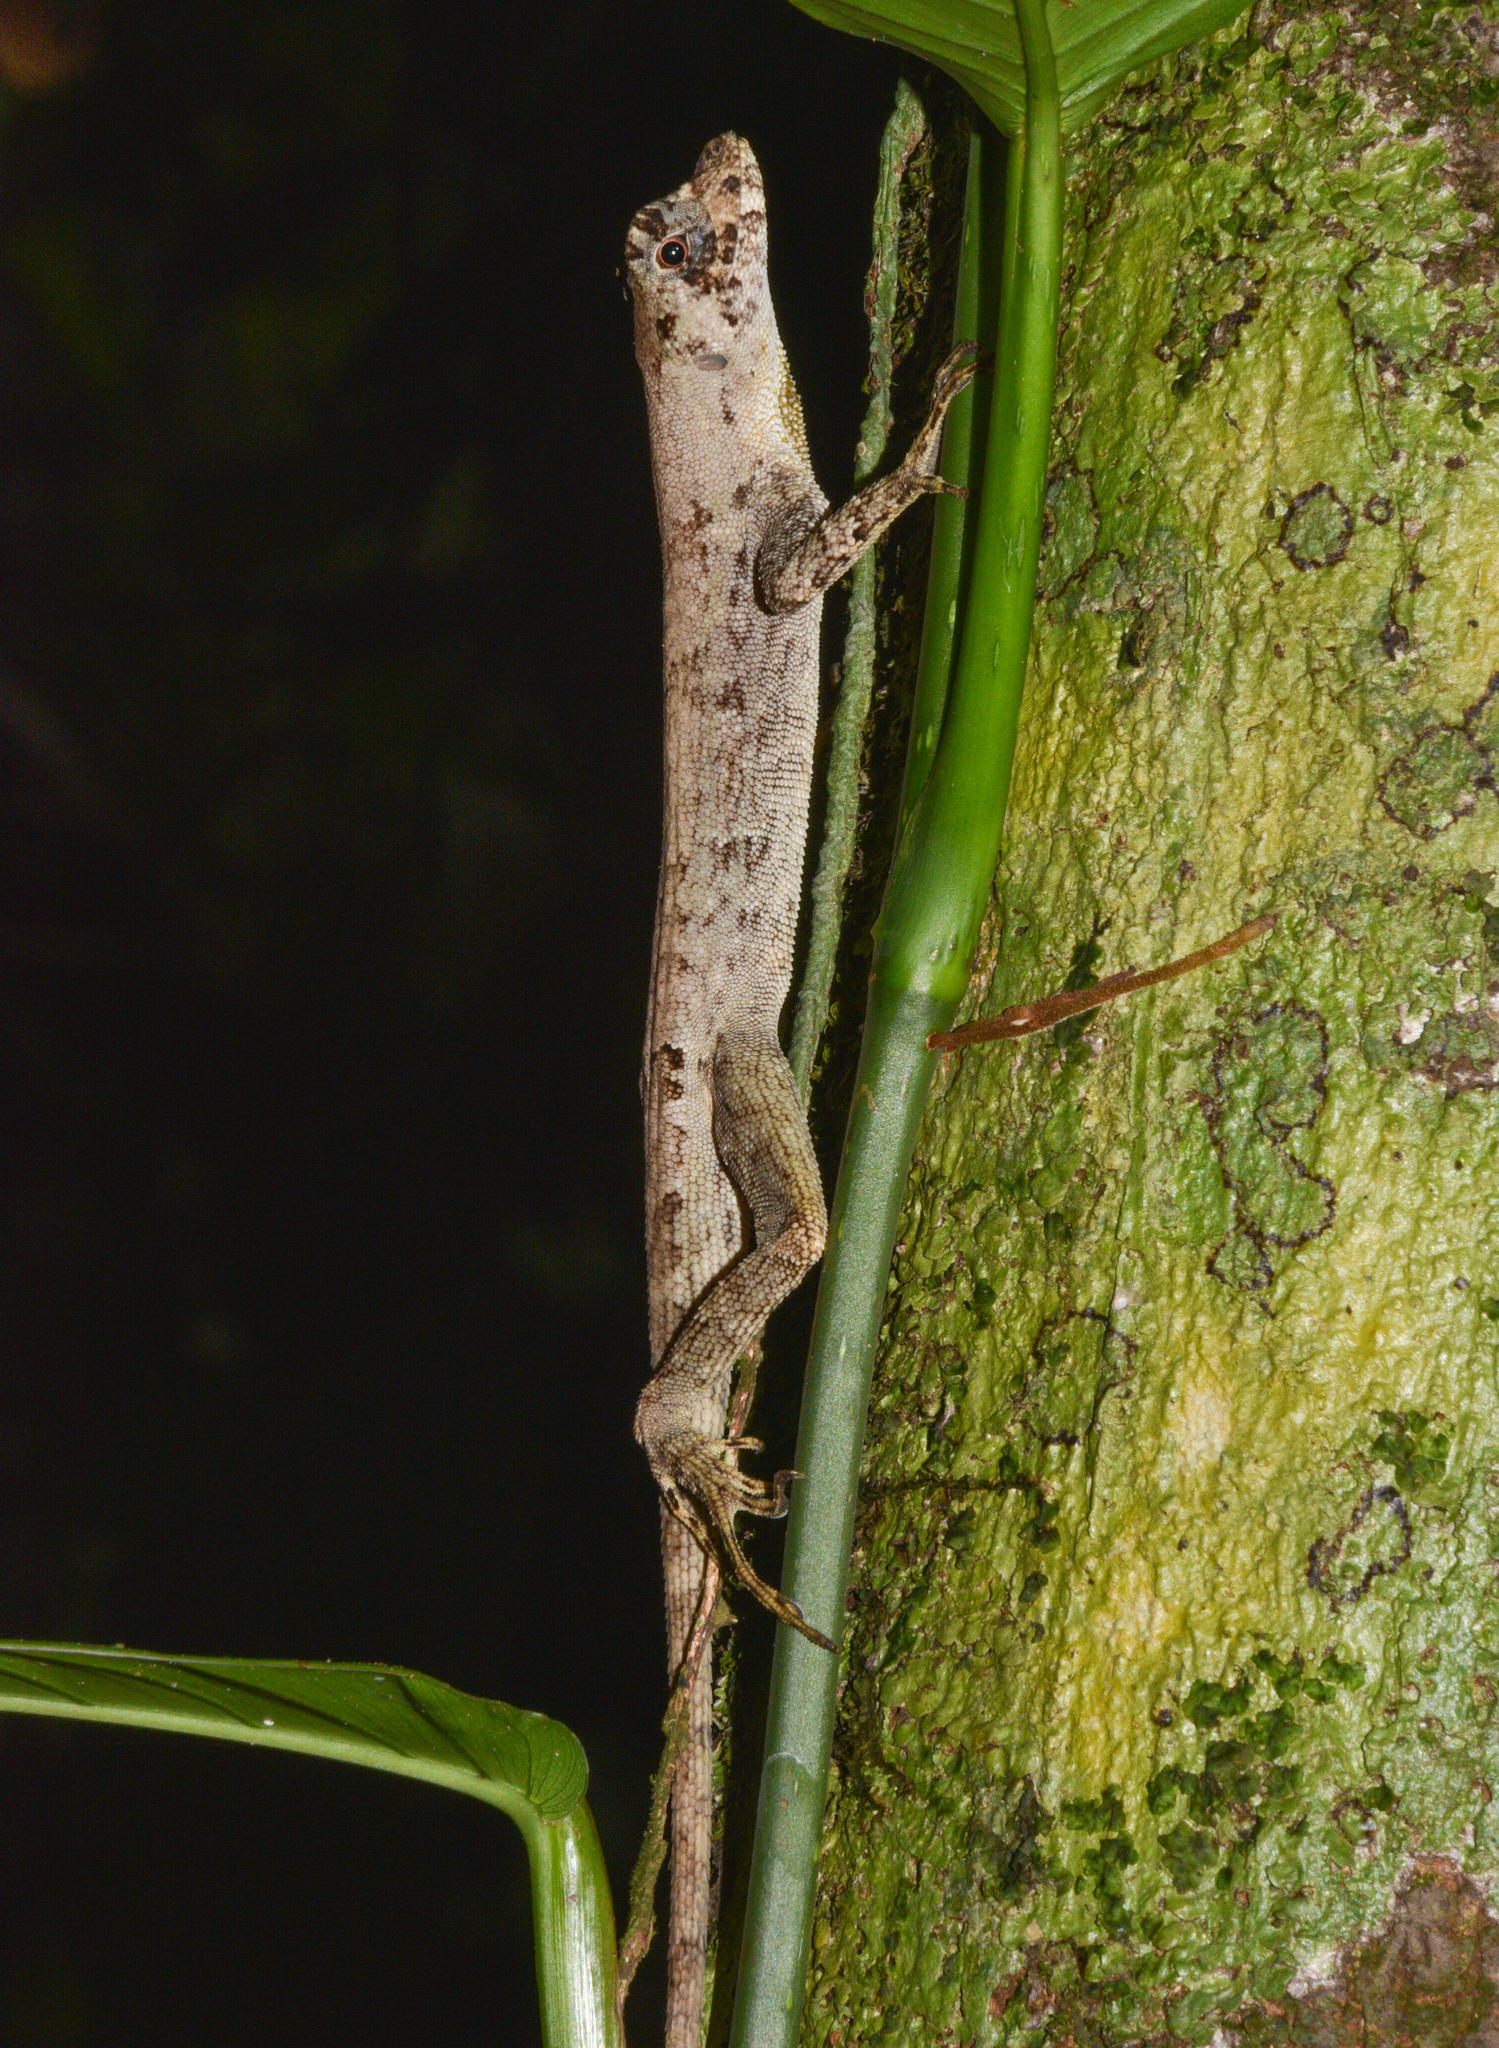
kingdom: Animalia
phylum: Chordata
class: Squamata
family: Dactyloidae
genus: Anolis
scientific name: Anolis capito
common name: Bighead anole
